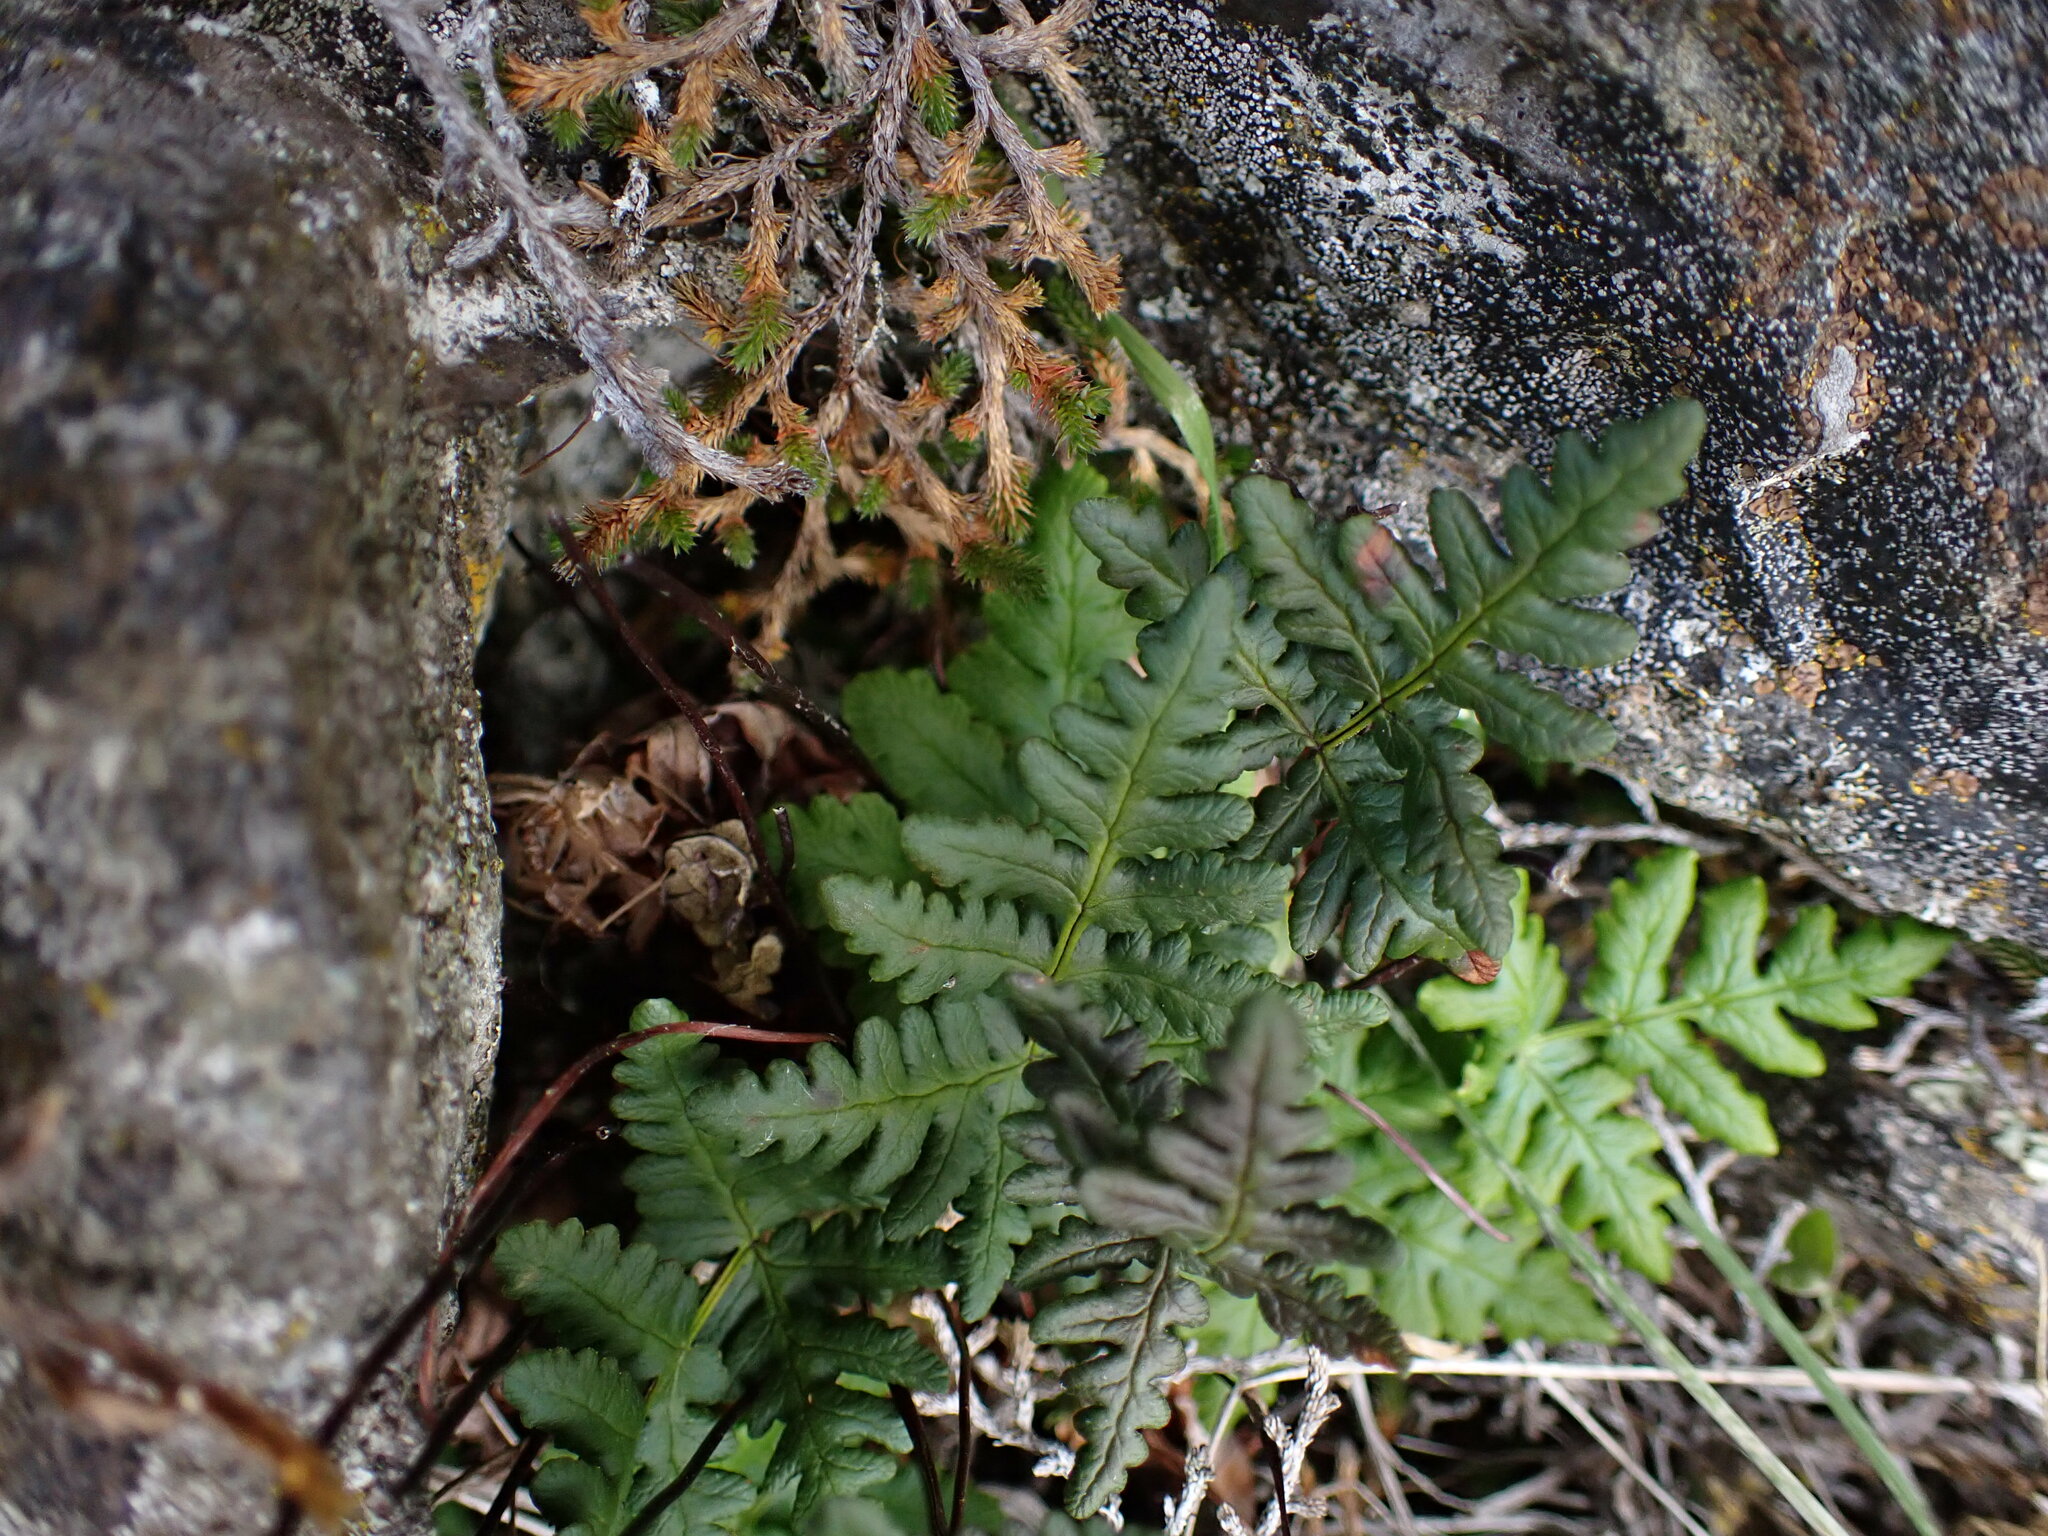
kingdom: Plantae
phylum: Tracheophyta
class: Polypodiopsida
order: Polypodiales
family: Pteridaceae
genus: Pentagramma
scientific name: Pentagramma triangularis
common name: Gold fern
